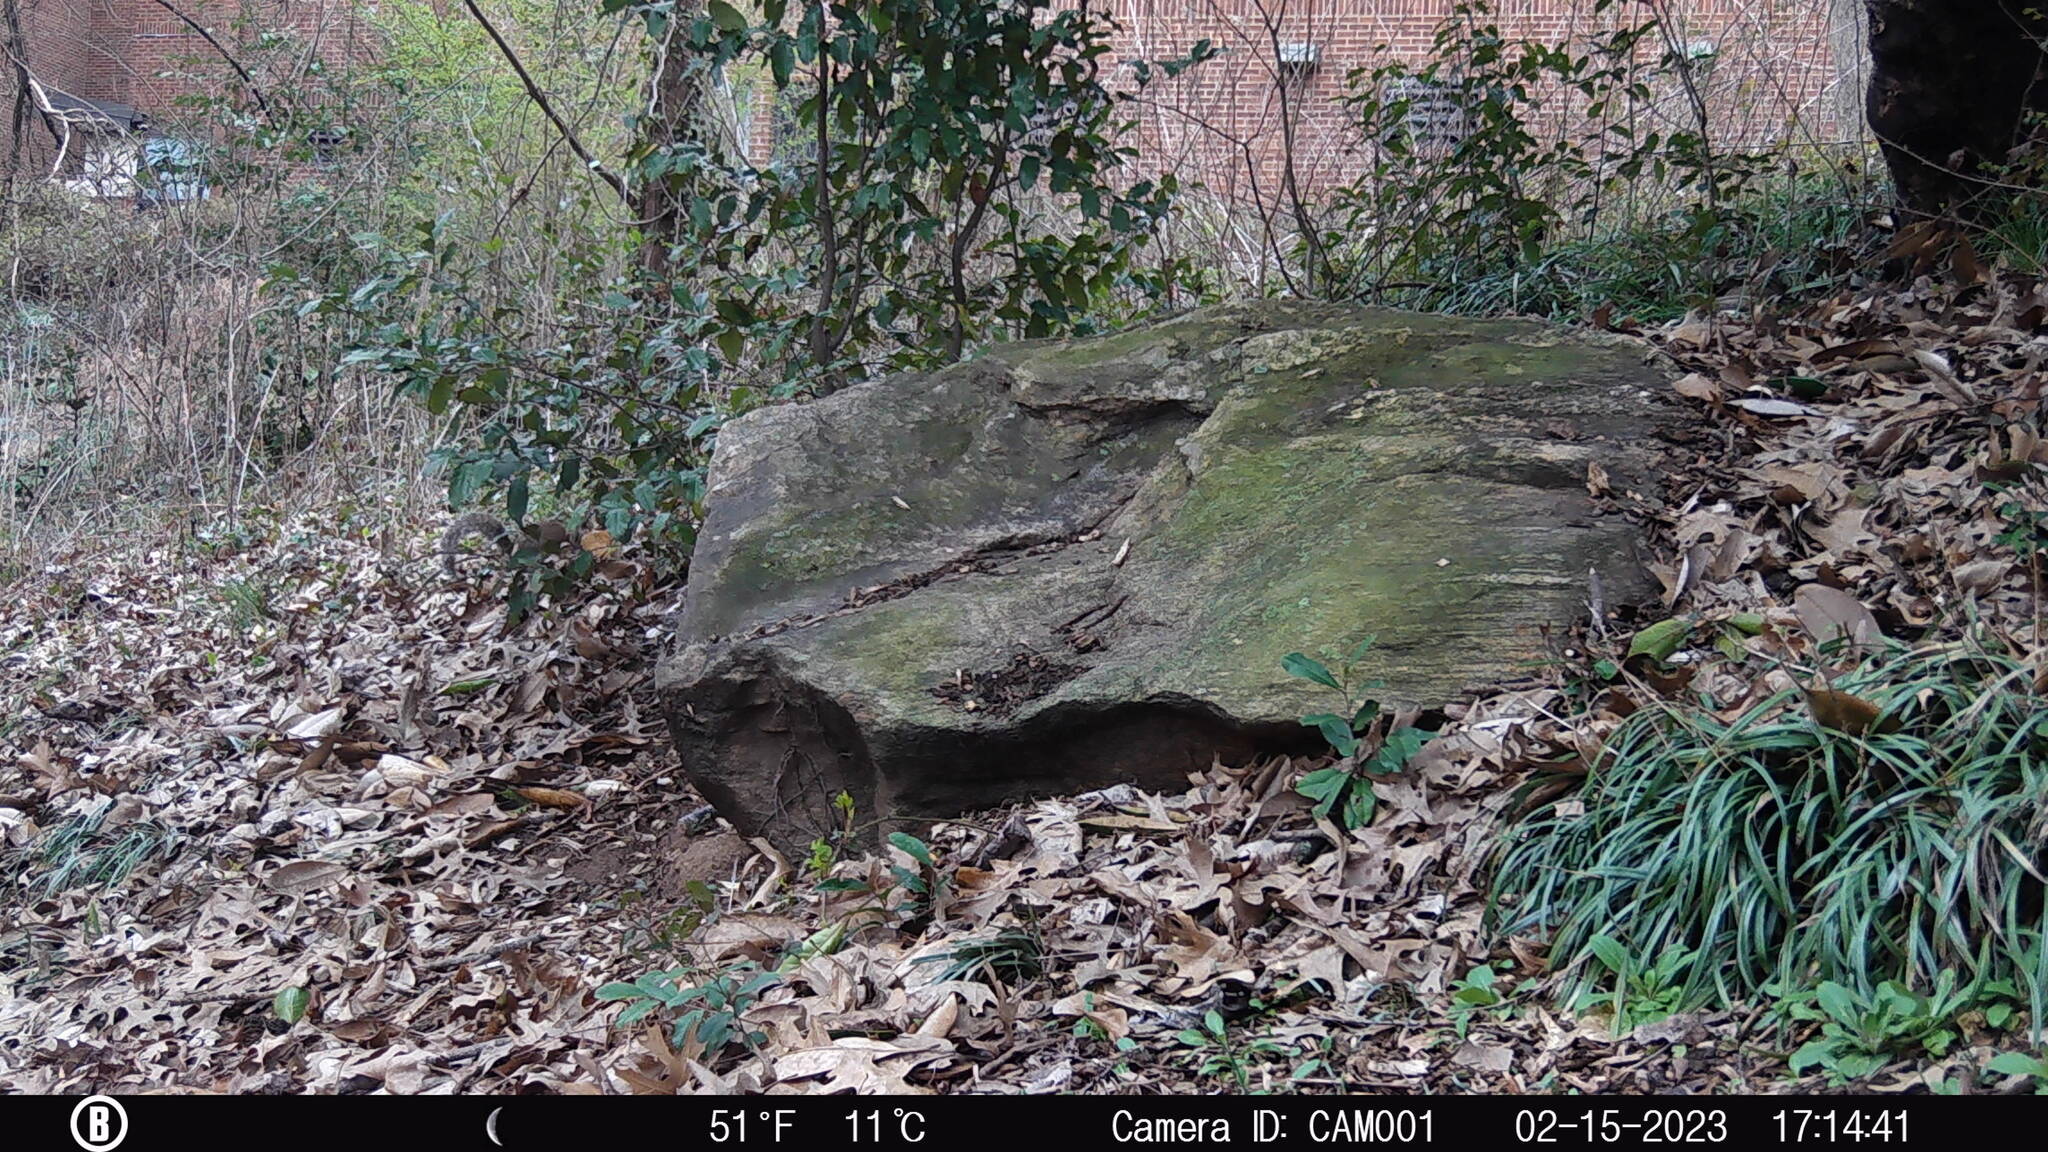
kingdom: Animalia
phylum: Chordata
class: Mammalia
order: Rodentia
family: Sciuridae
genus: Sciurus
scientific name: Sciurus carolinensis
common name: Eastern gray squirrel
